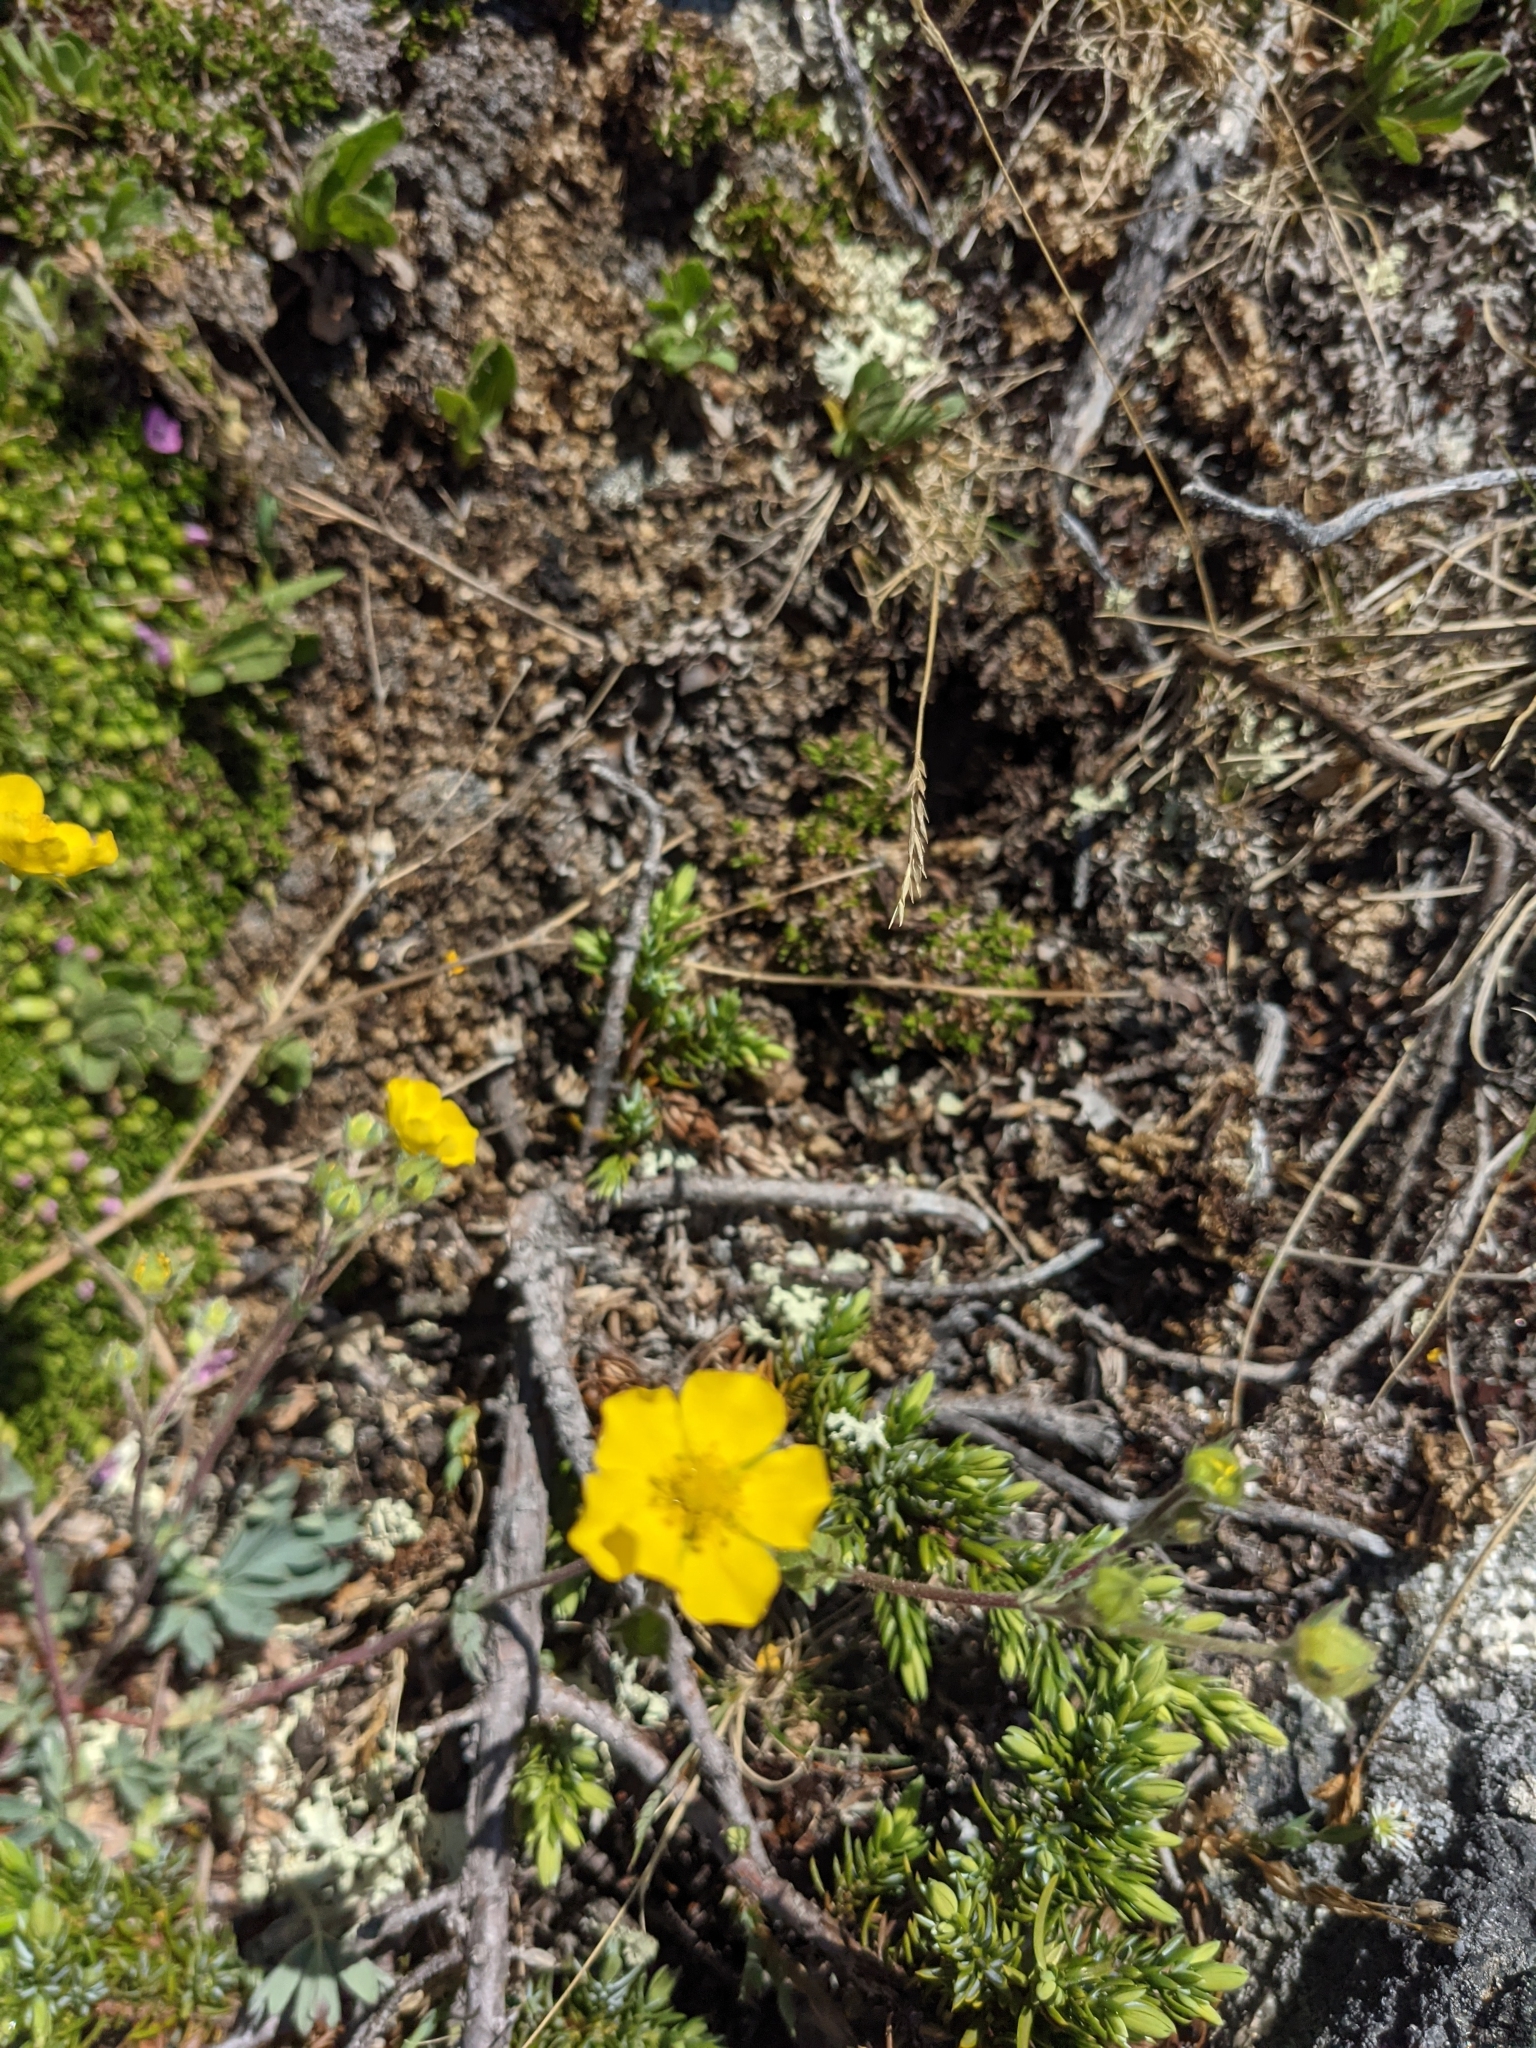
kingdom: Plantae
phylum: Tracheophyta
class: Magnoliopsida
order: Rosales
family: Rosaceae
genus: Potentilla
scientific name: Potentilla glaucophylla
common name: Blue-leaved cinquefoil
